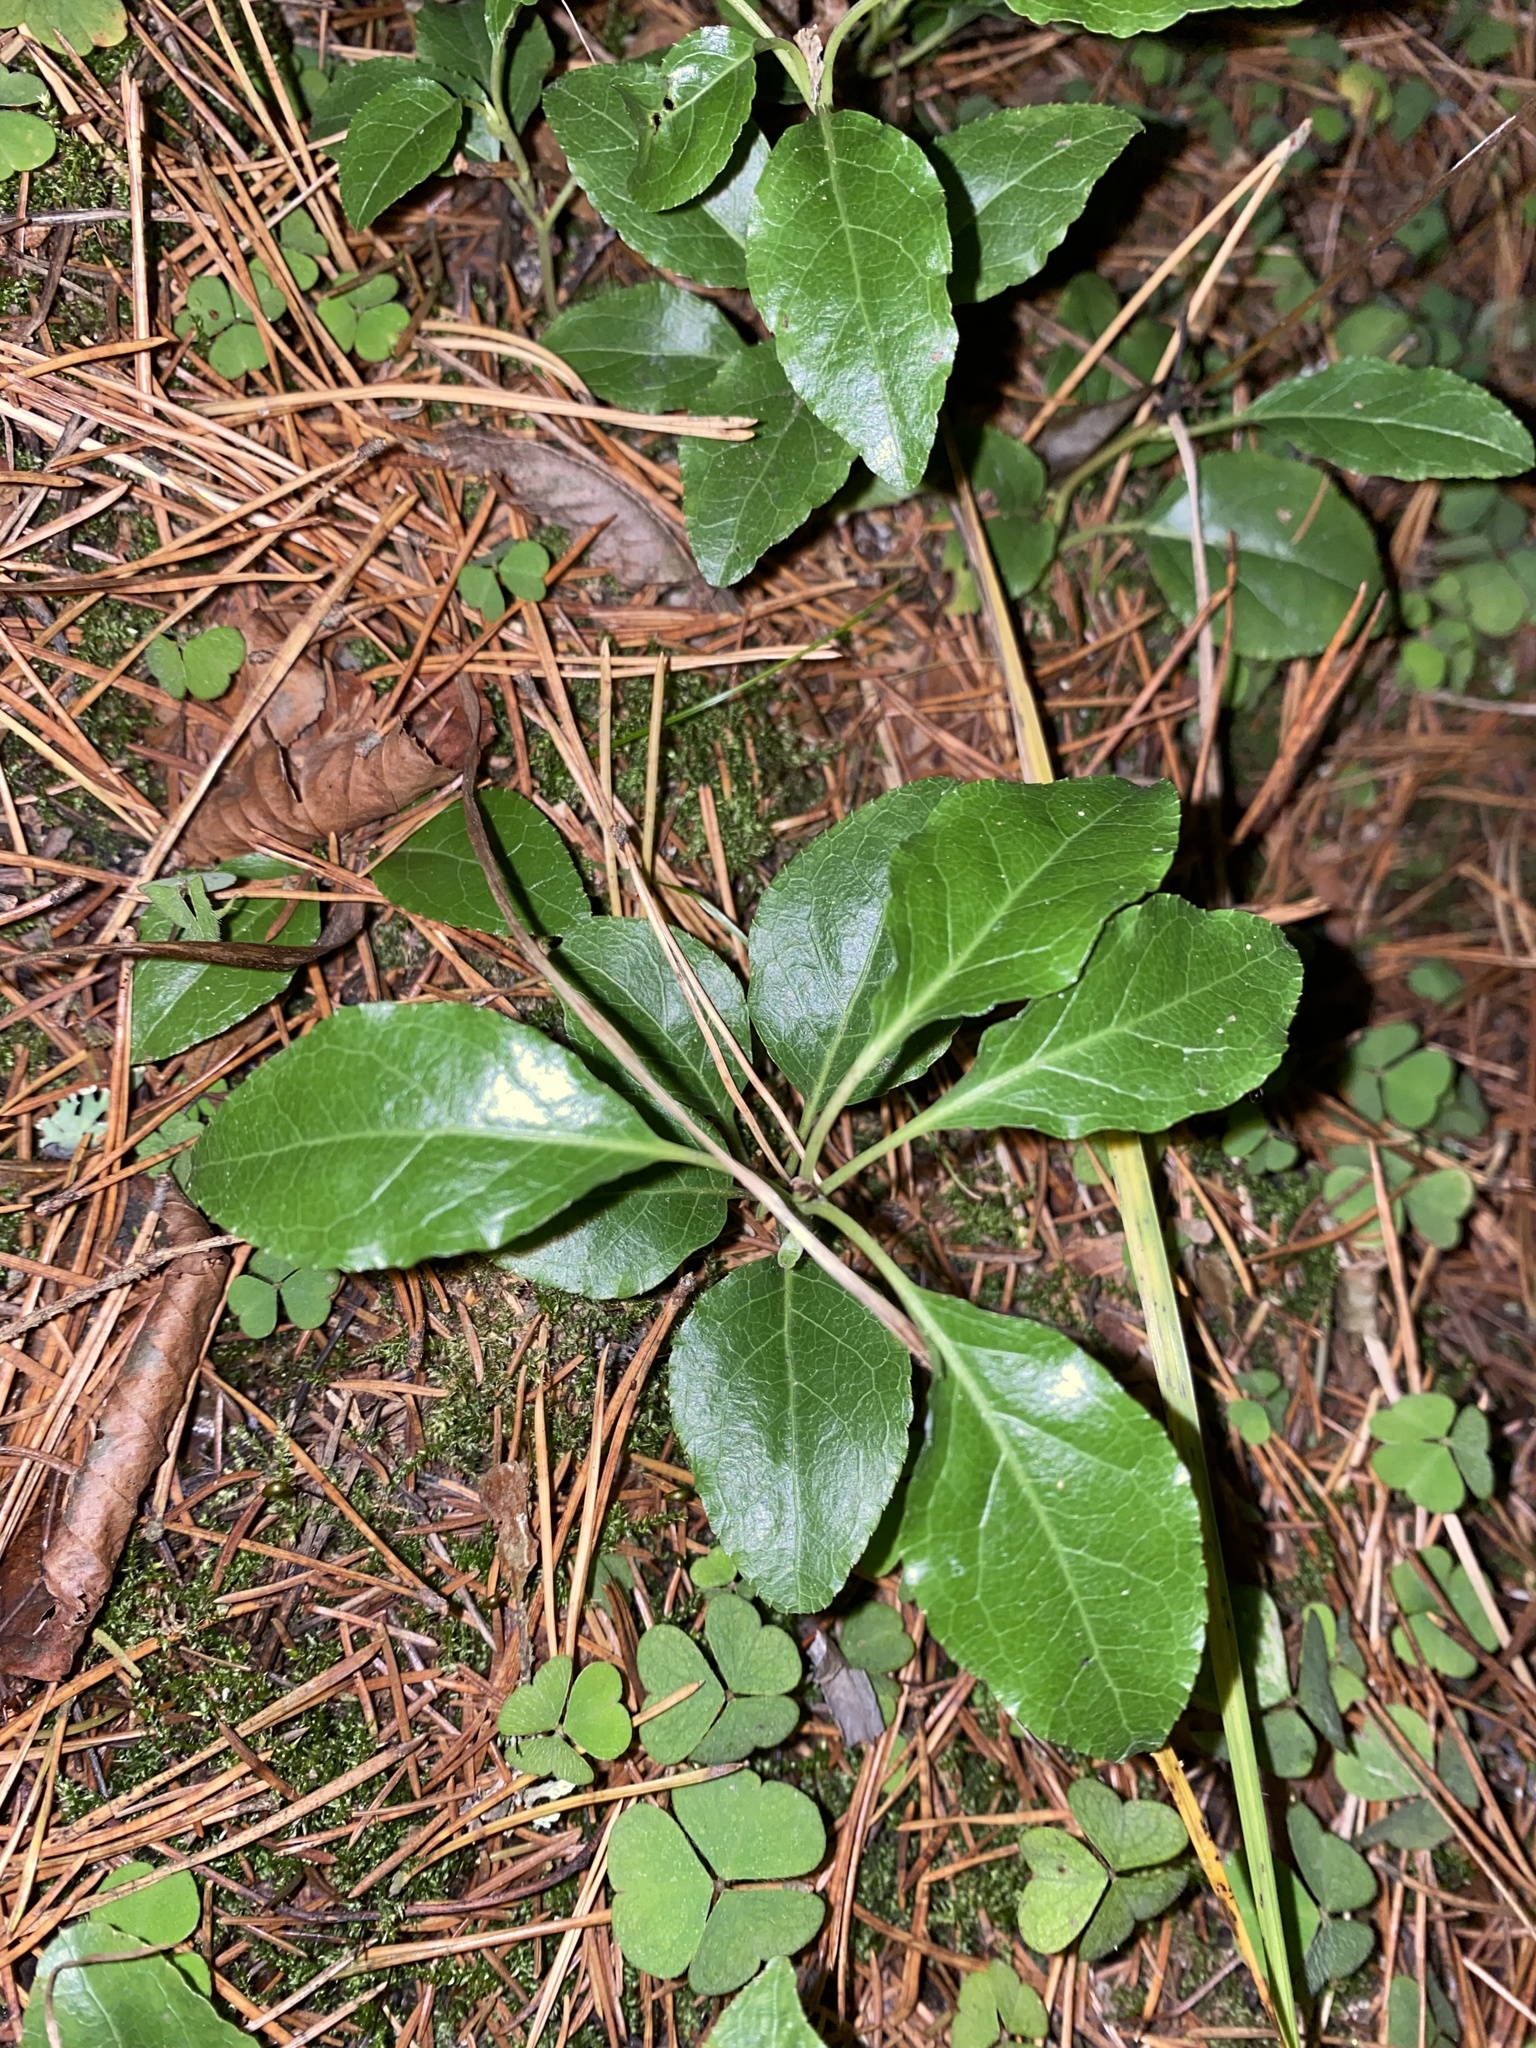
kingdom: Plantae
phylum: Tracheophyta
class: Magnoliopsida
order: Ericales
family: Ericaceae
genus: Orthilia
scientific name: Orthilia secunda
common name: One-sided orthilia
